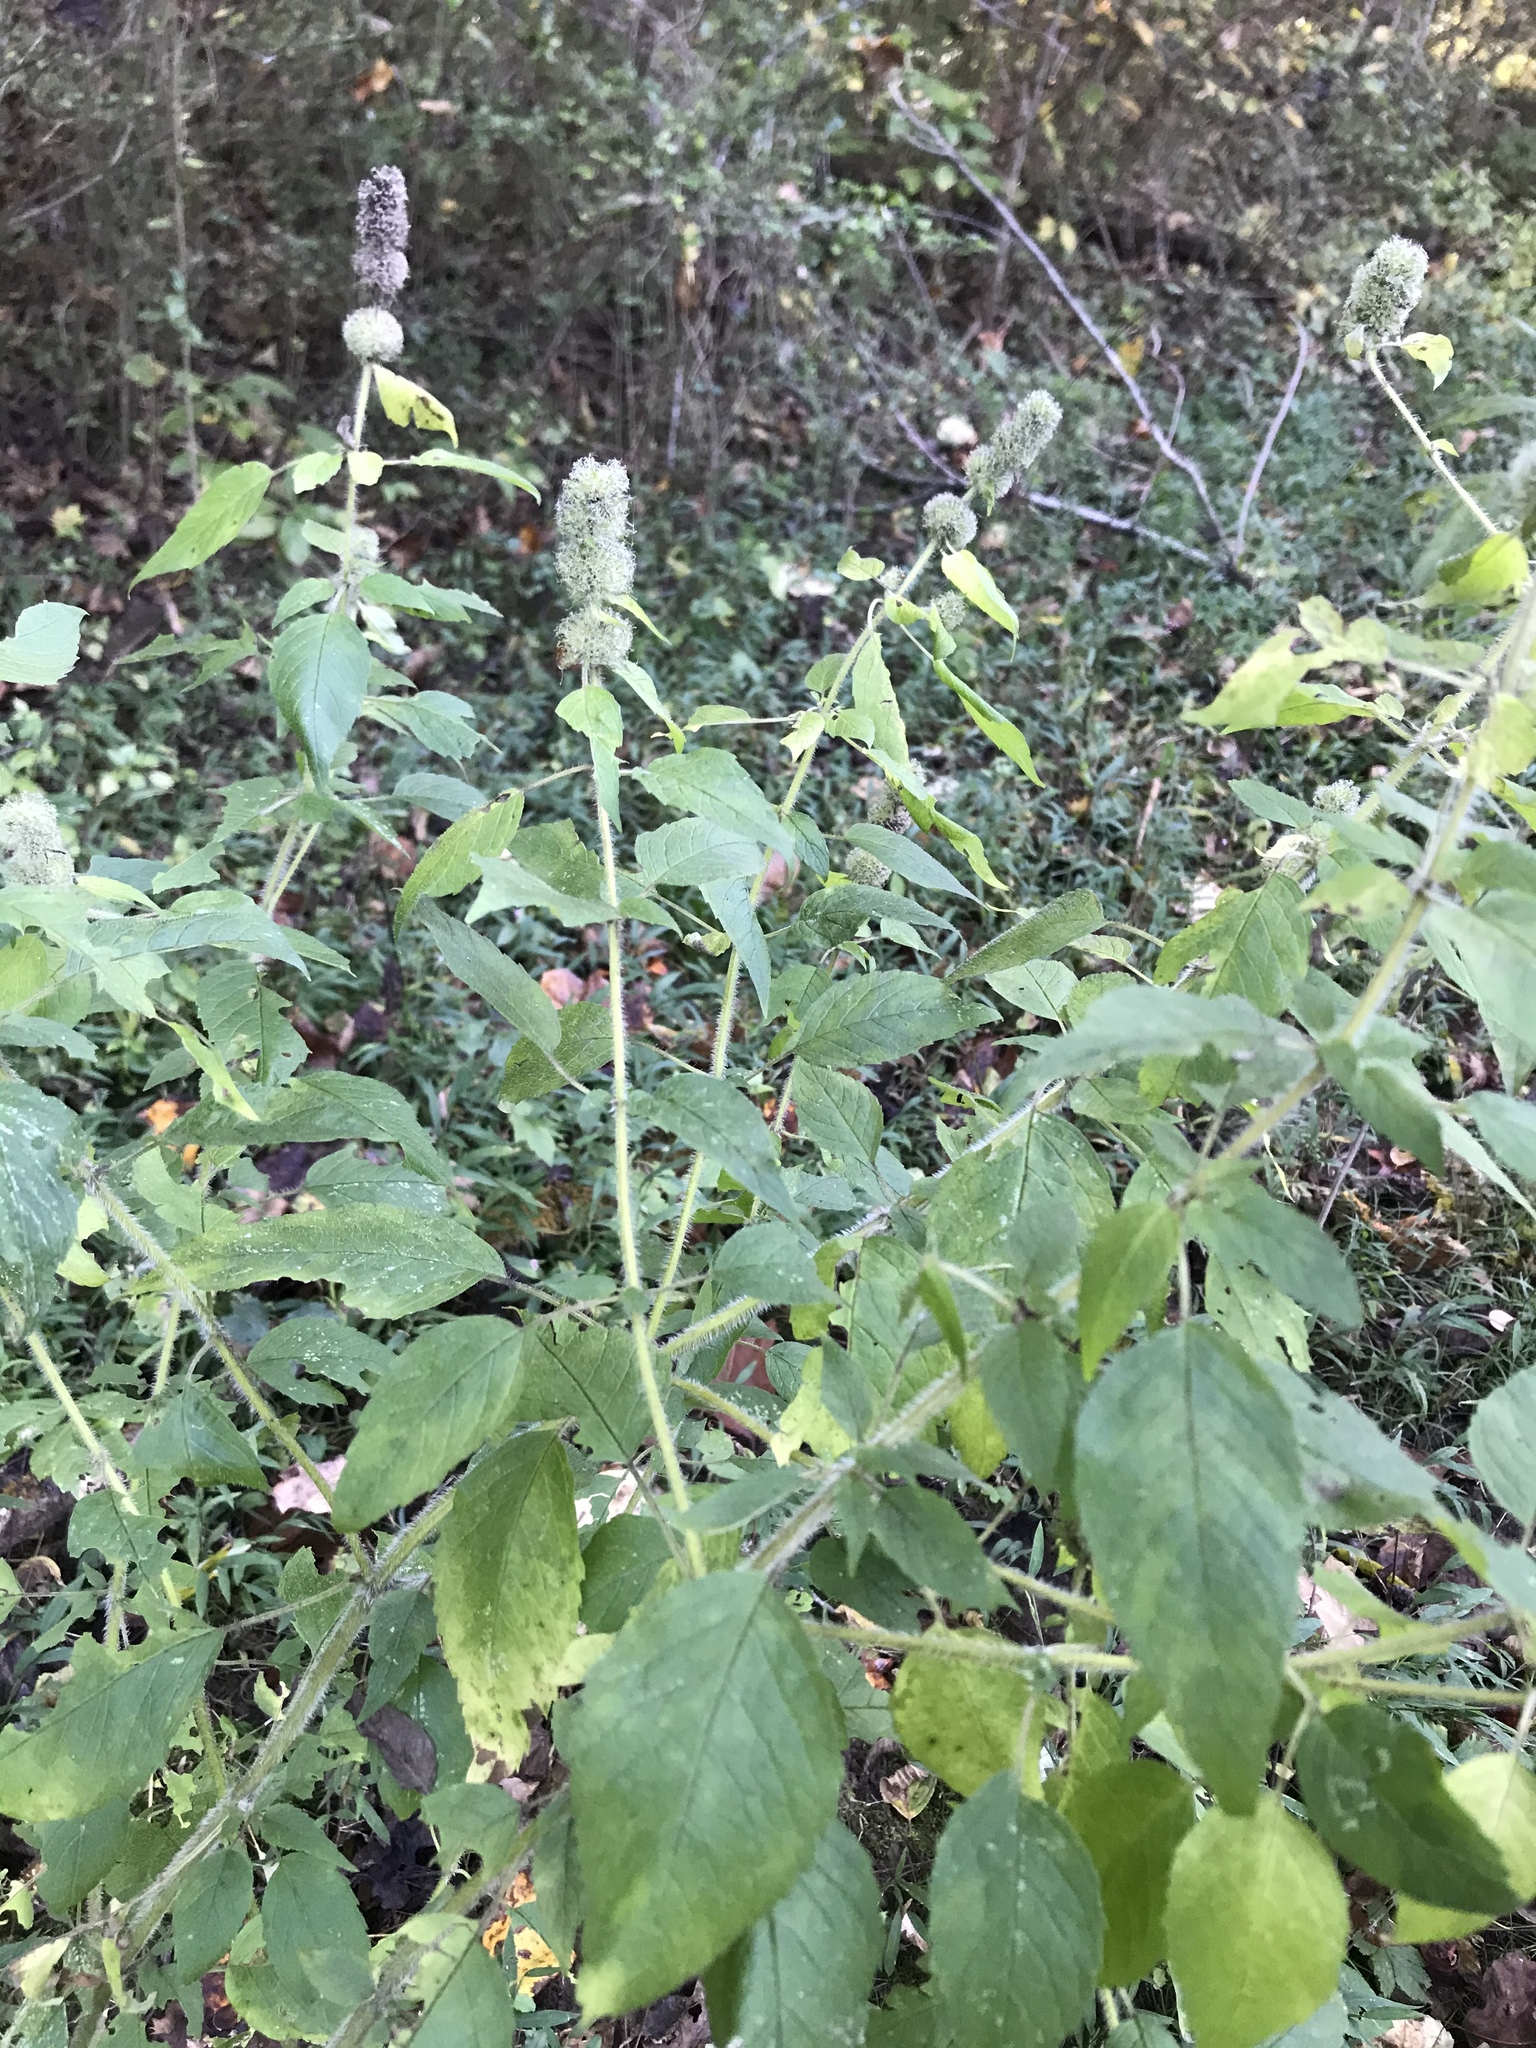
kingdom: Plantae
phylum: Tracheophyta
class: Magnoliopsida
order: Lamiales
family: Lamiaceae
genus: Blephilia
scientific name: Blephilia hirsuta
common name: Hairy blephilia
